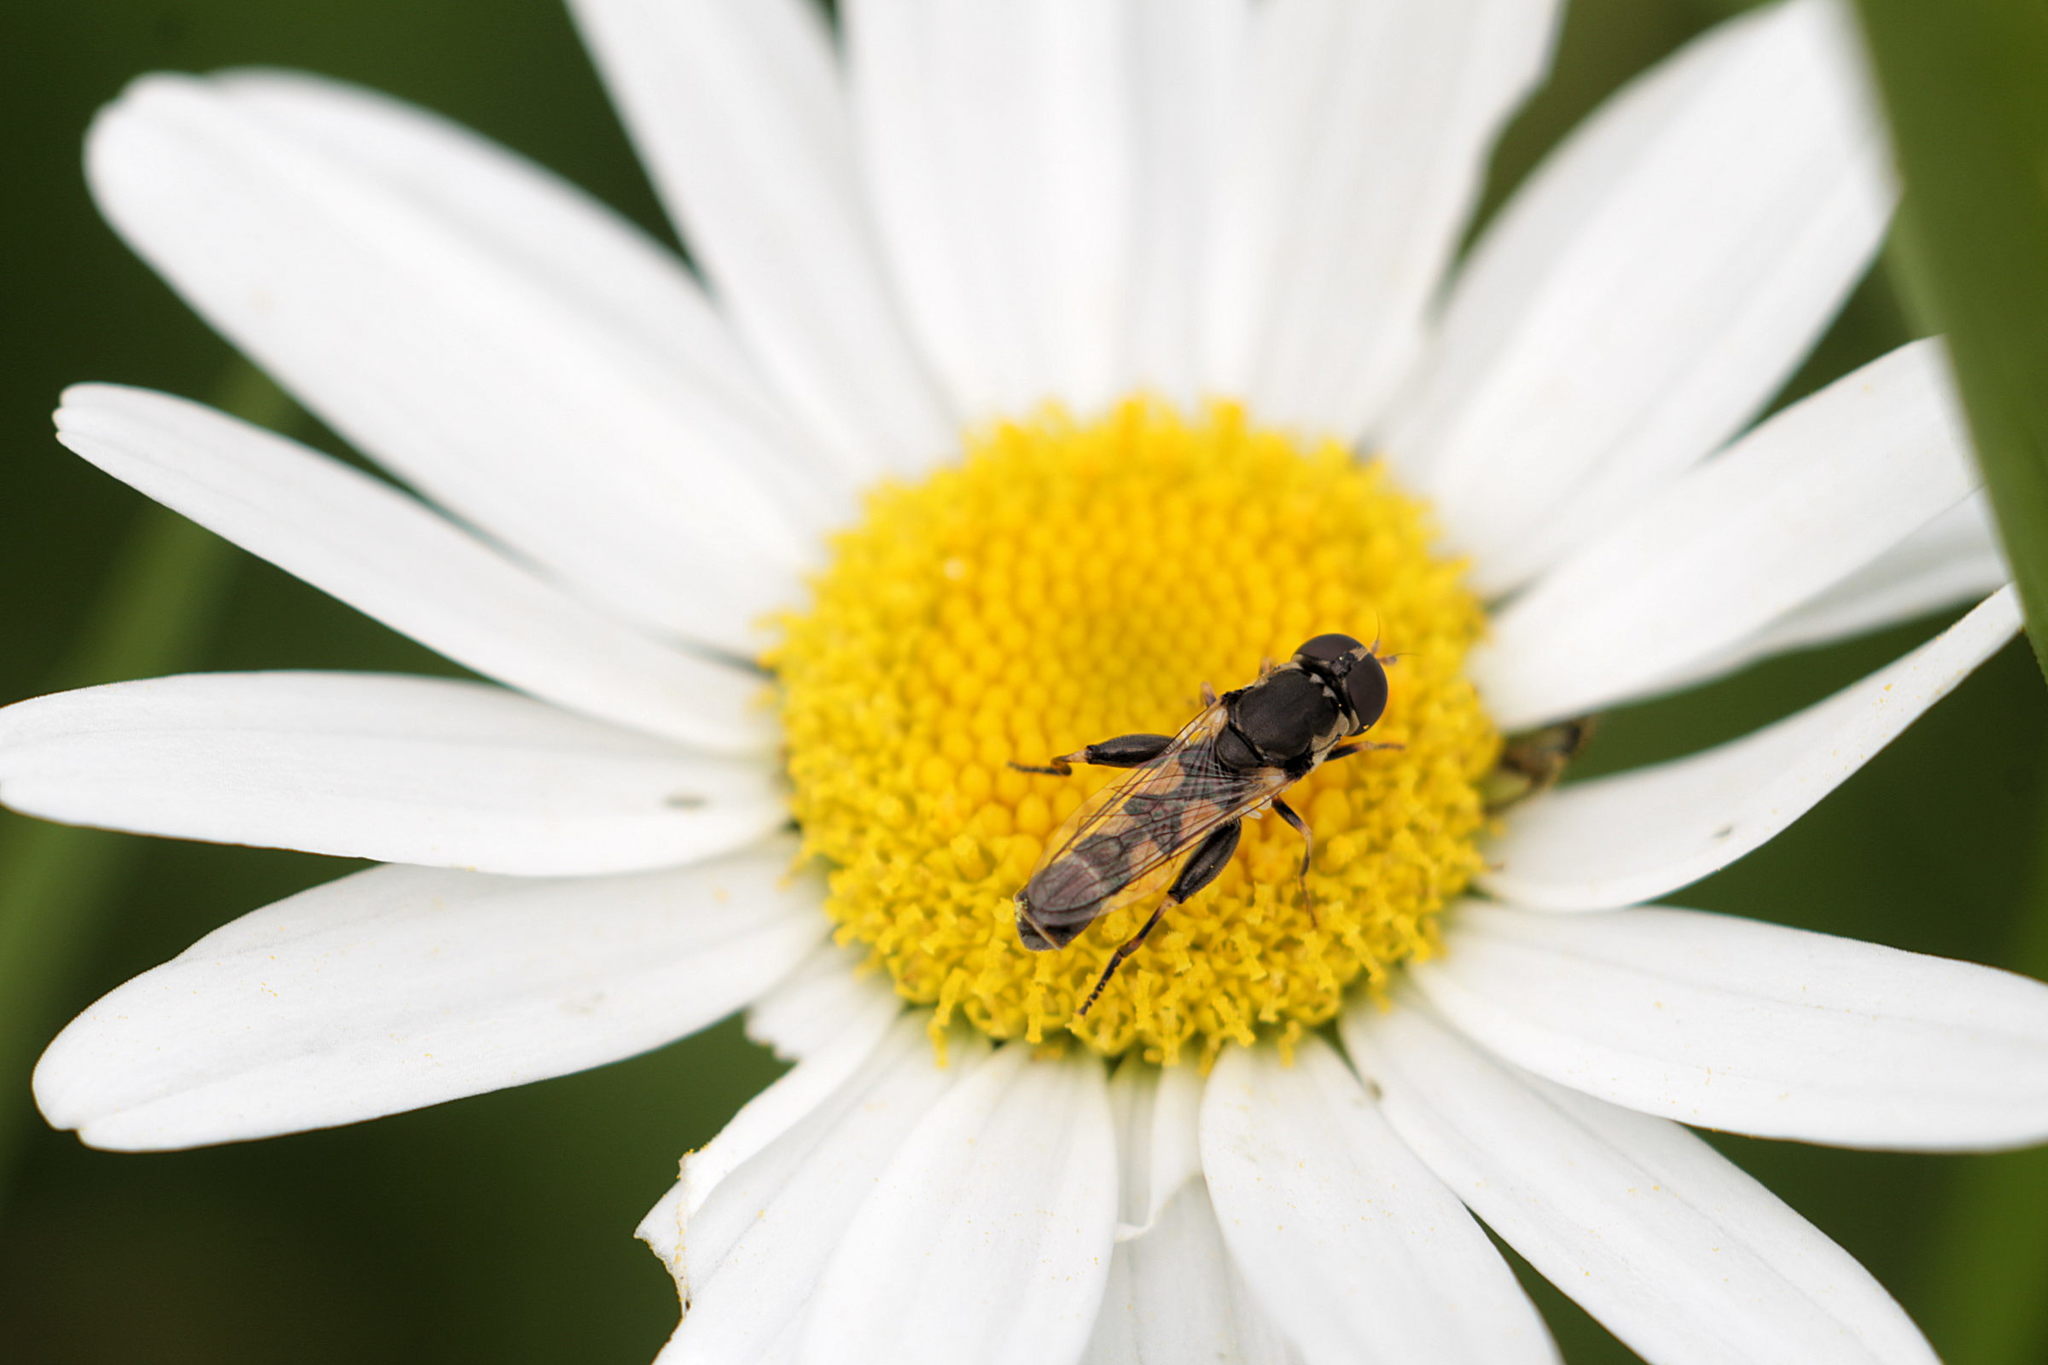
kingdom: Animalia
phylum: Arthropoda
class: Insecta
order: Diptera
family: Syrphidae
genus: Syritta
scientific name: Syritta pipiens
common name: Hover fly
